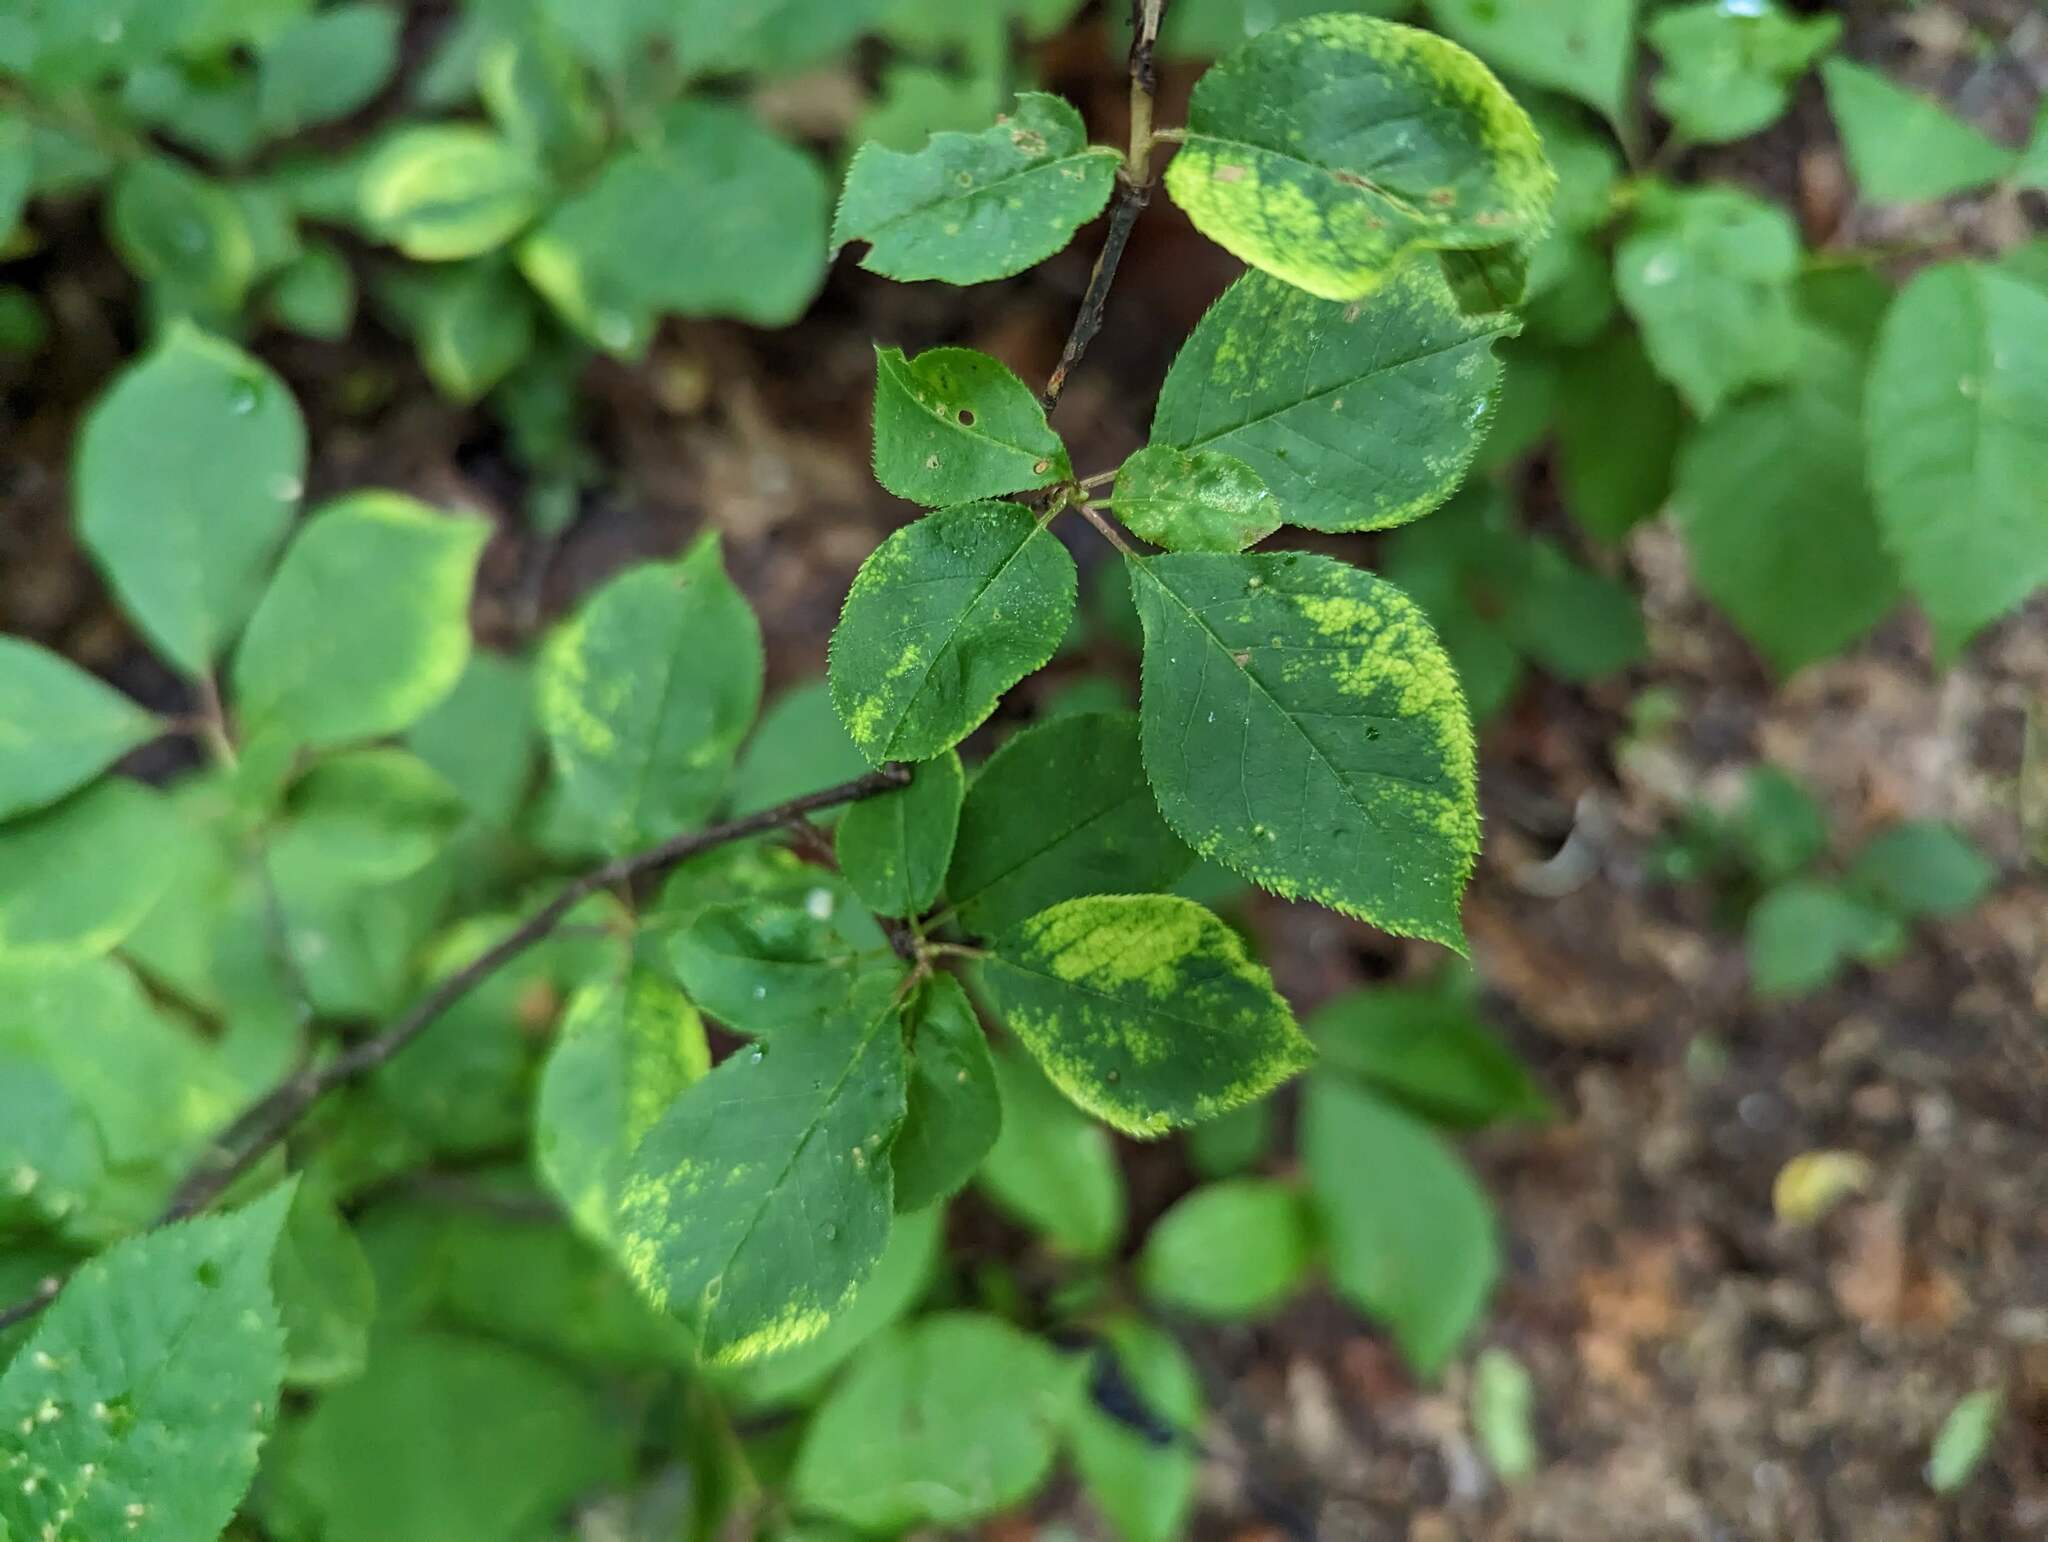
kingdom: Plantae
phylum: Tracheophyta
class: Magnoliopsida
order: Rosales
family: Rosaceae
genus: Prunus
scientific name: Prunus virginiana
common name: Chokecherry
